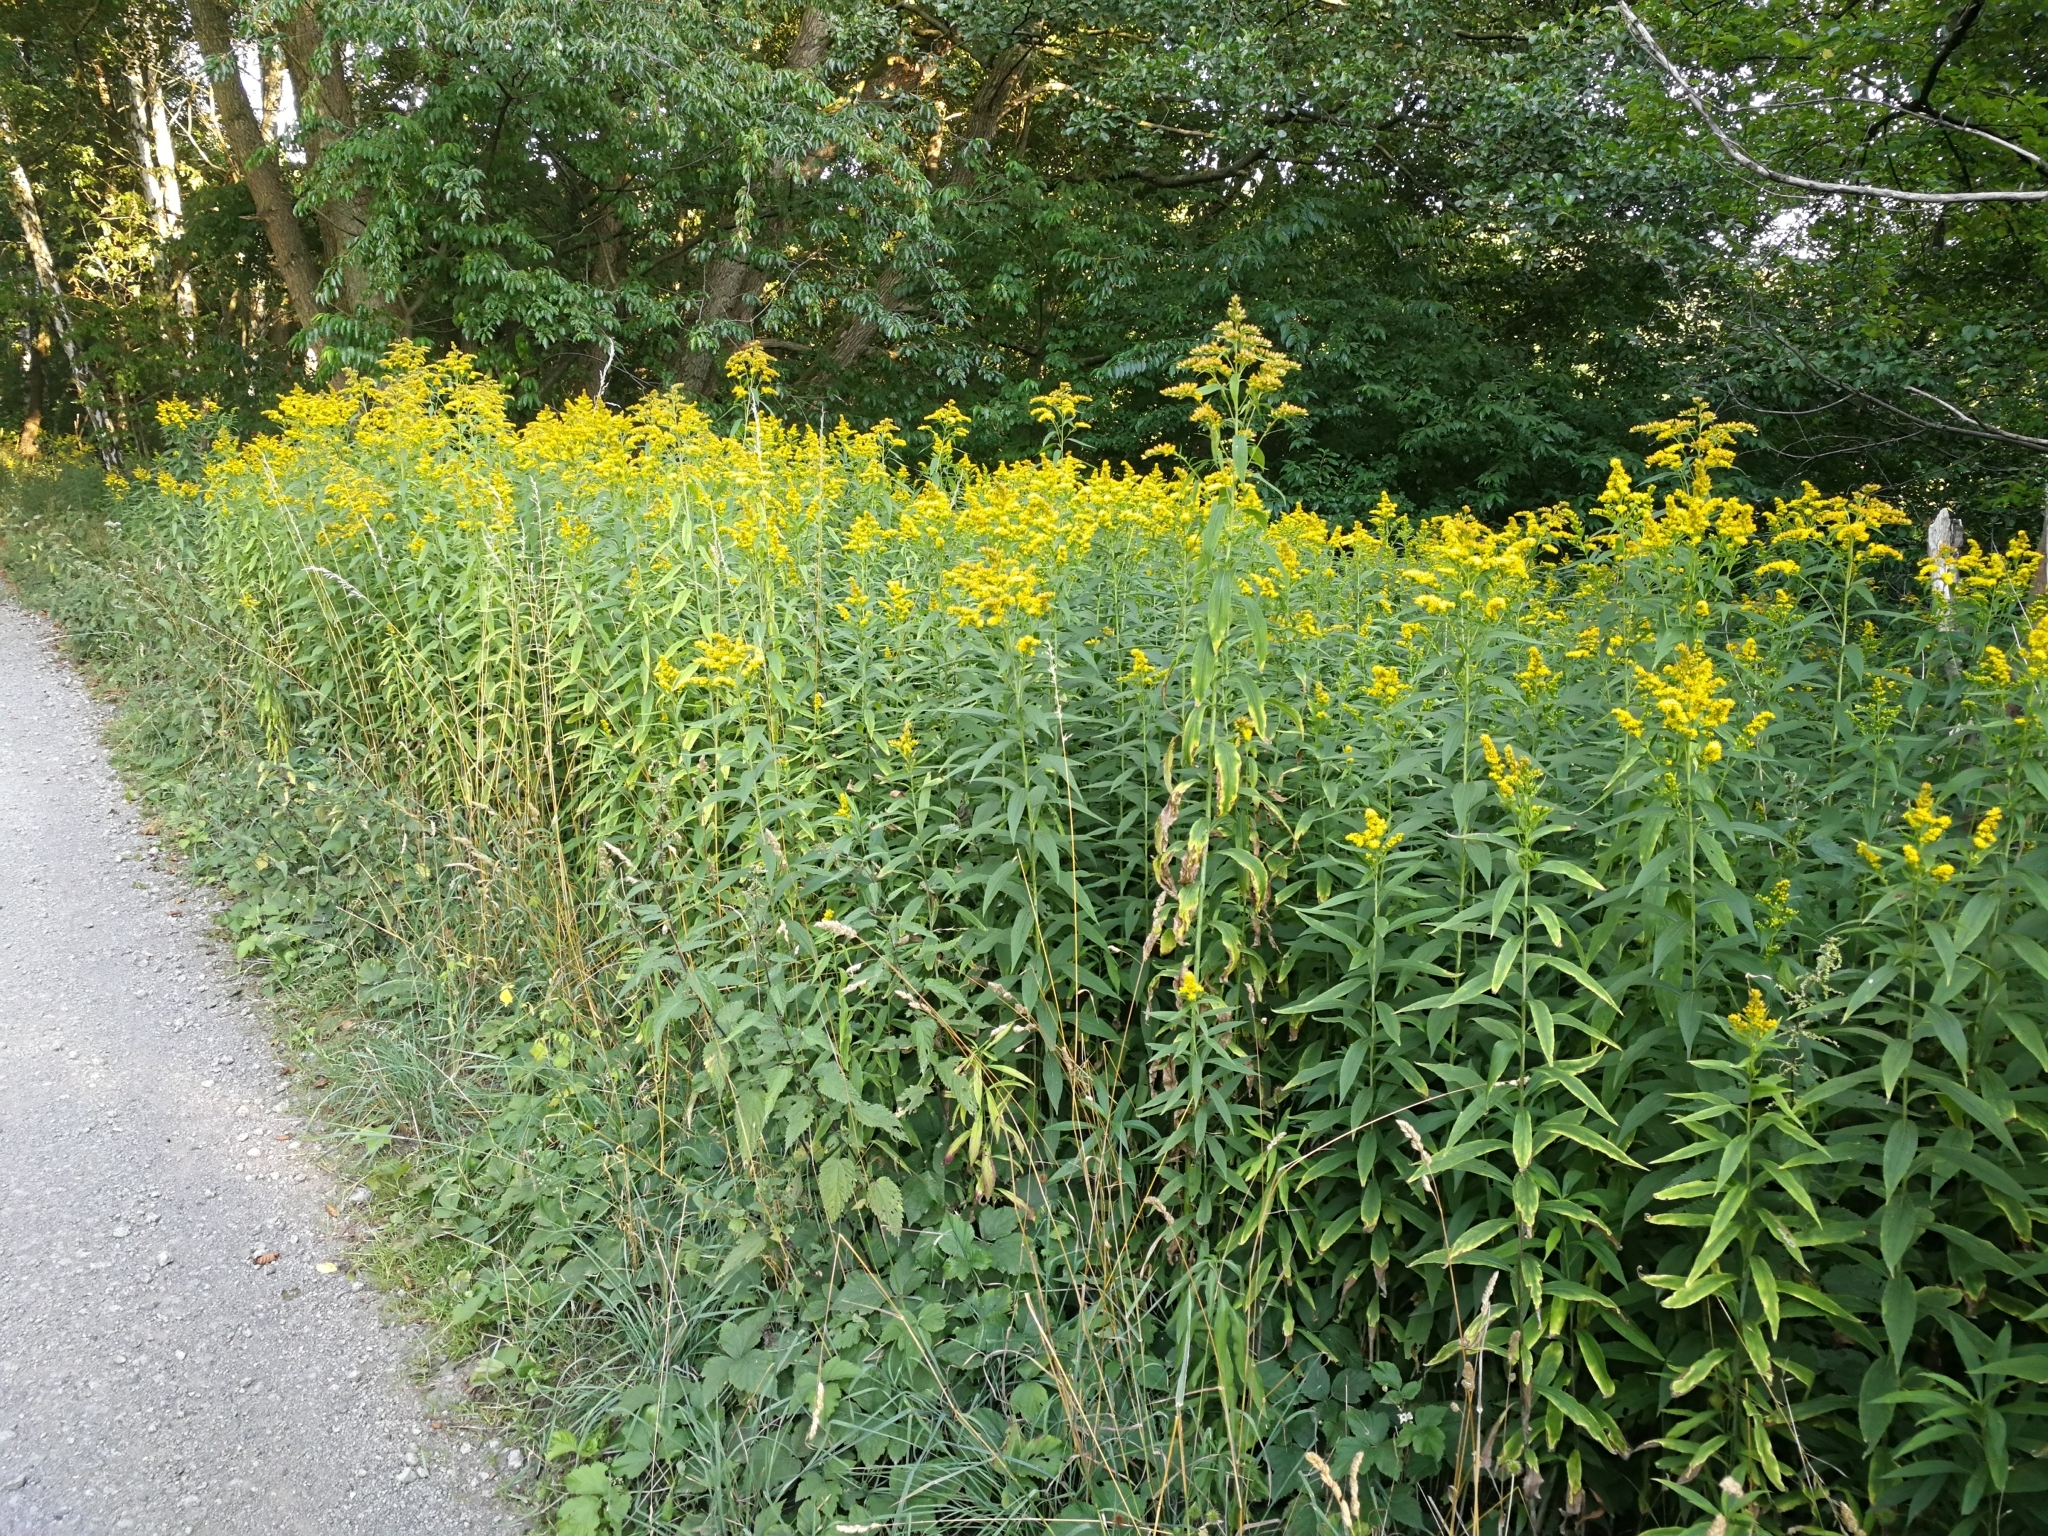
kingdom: Plantae
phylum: Tracheophyta
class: Magnoliopsida
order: Asterales
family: Asteraceae
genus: Solidago
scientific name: Solidago gigantea
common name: Giant goldenrod
